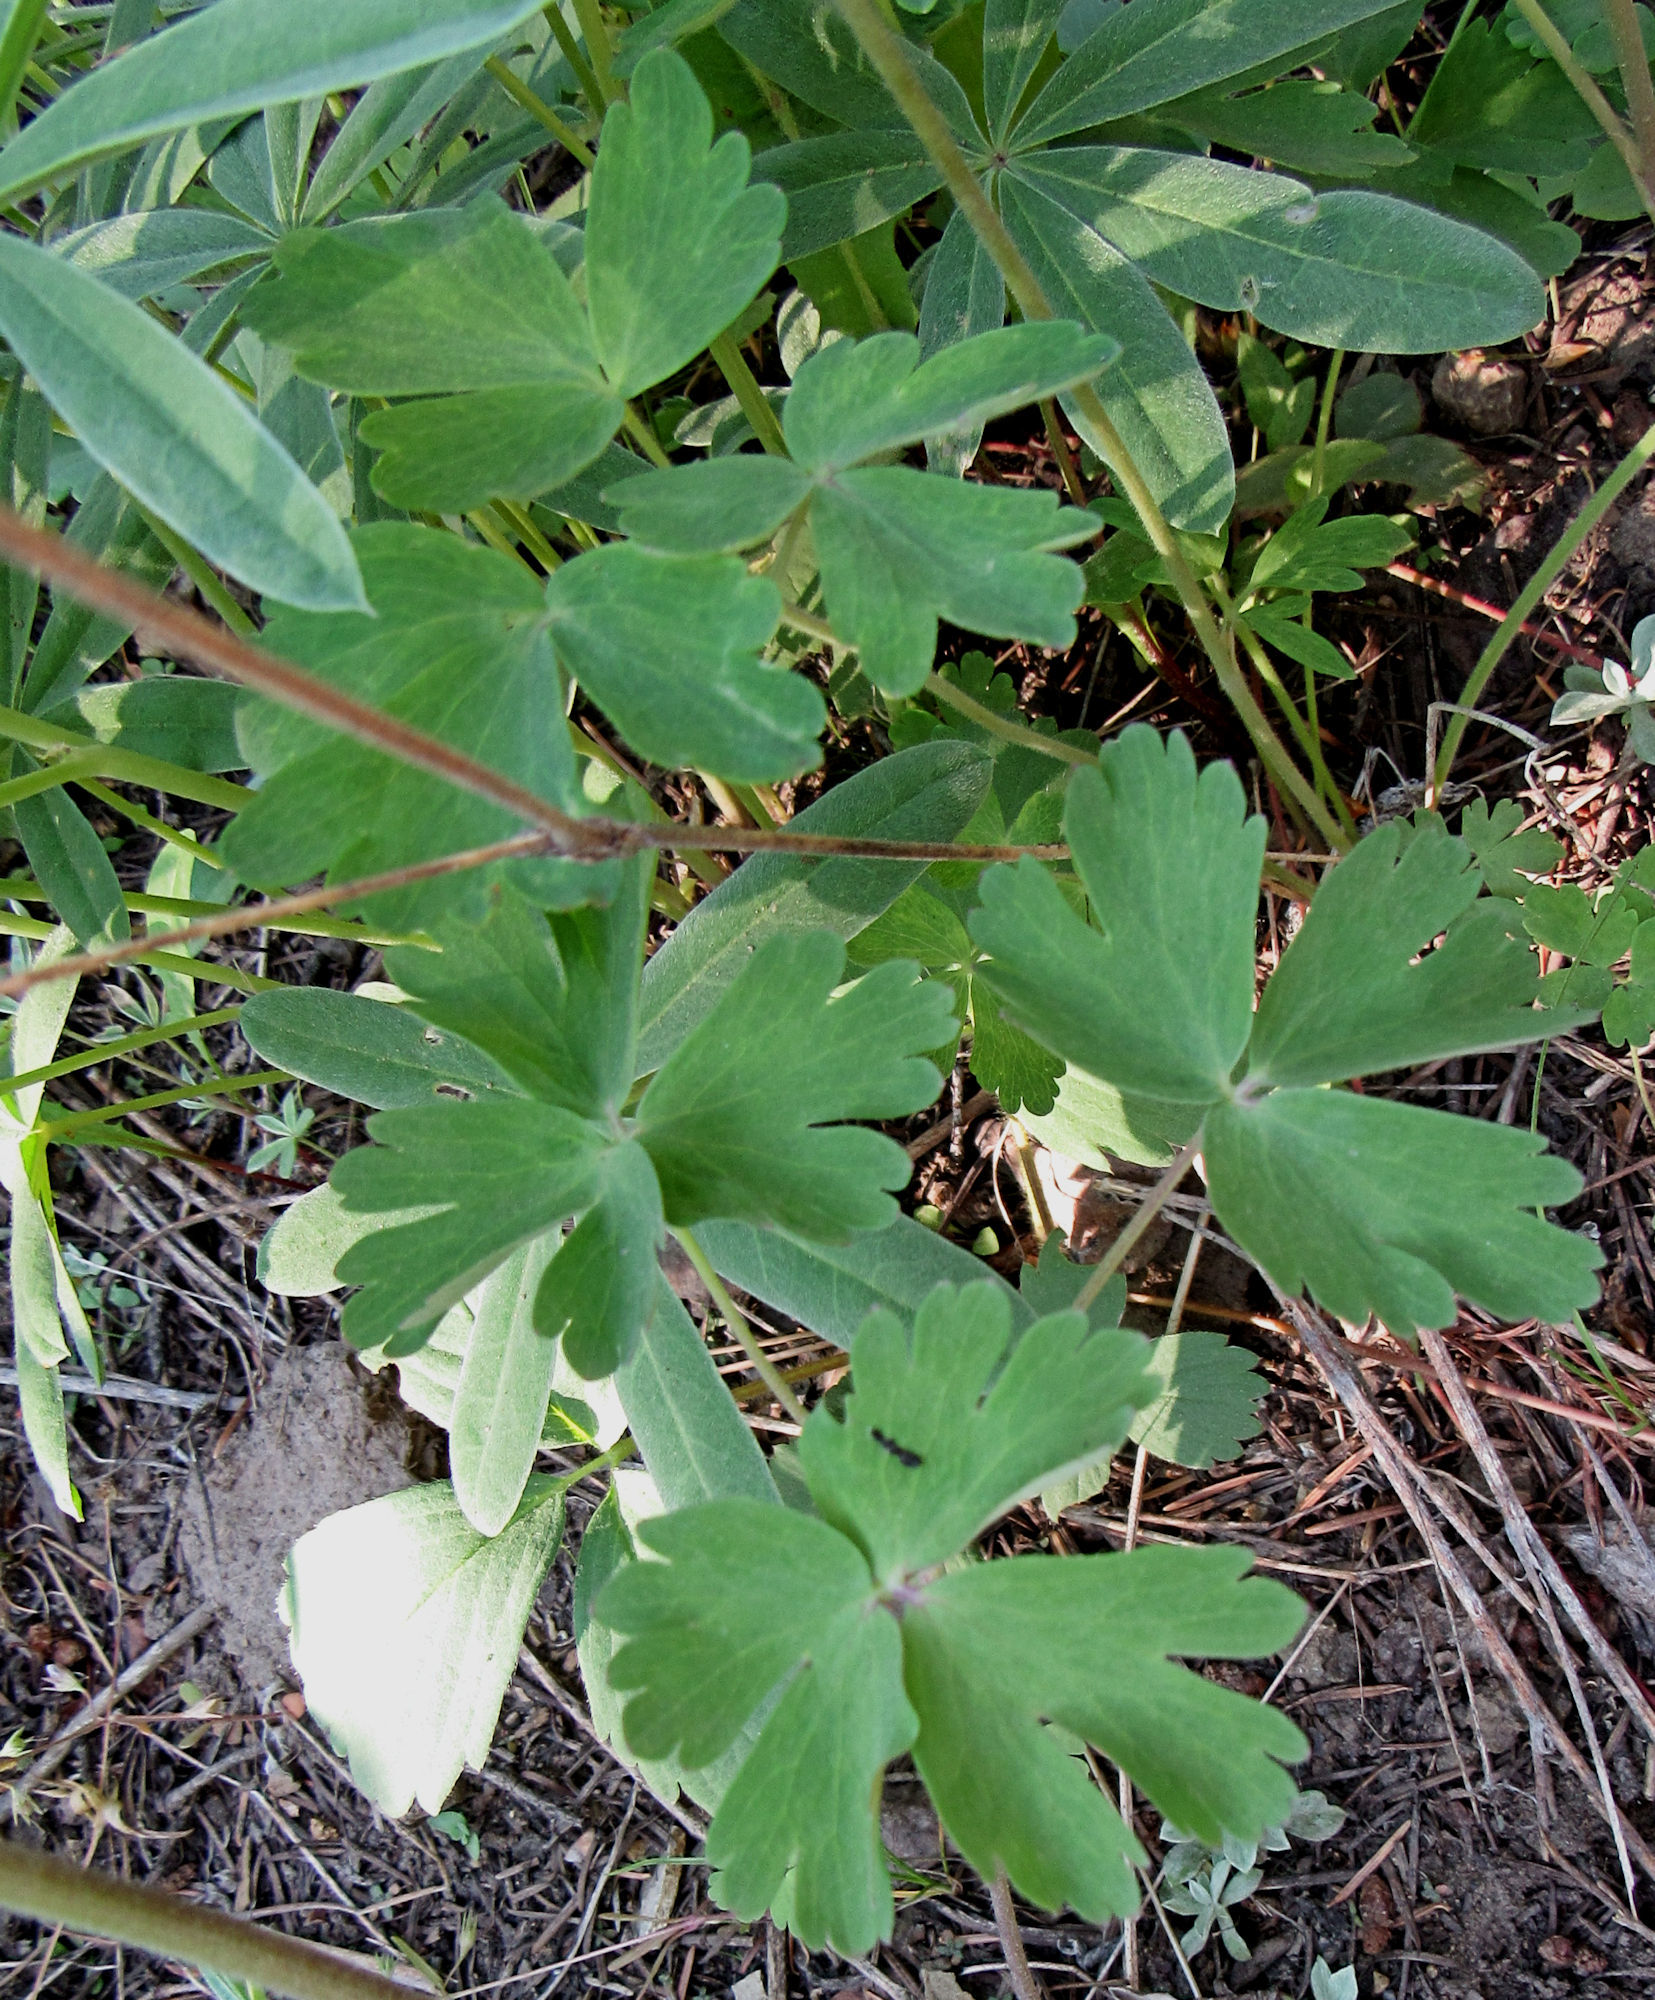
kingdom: Plantae
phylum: Tracheophyta
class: Magnoliopsida
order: Ranunculales
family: Ranunculaceae
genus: Aquilegia
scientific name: Aquilegia flavescens
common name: Yellow columbine
